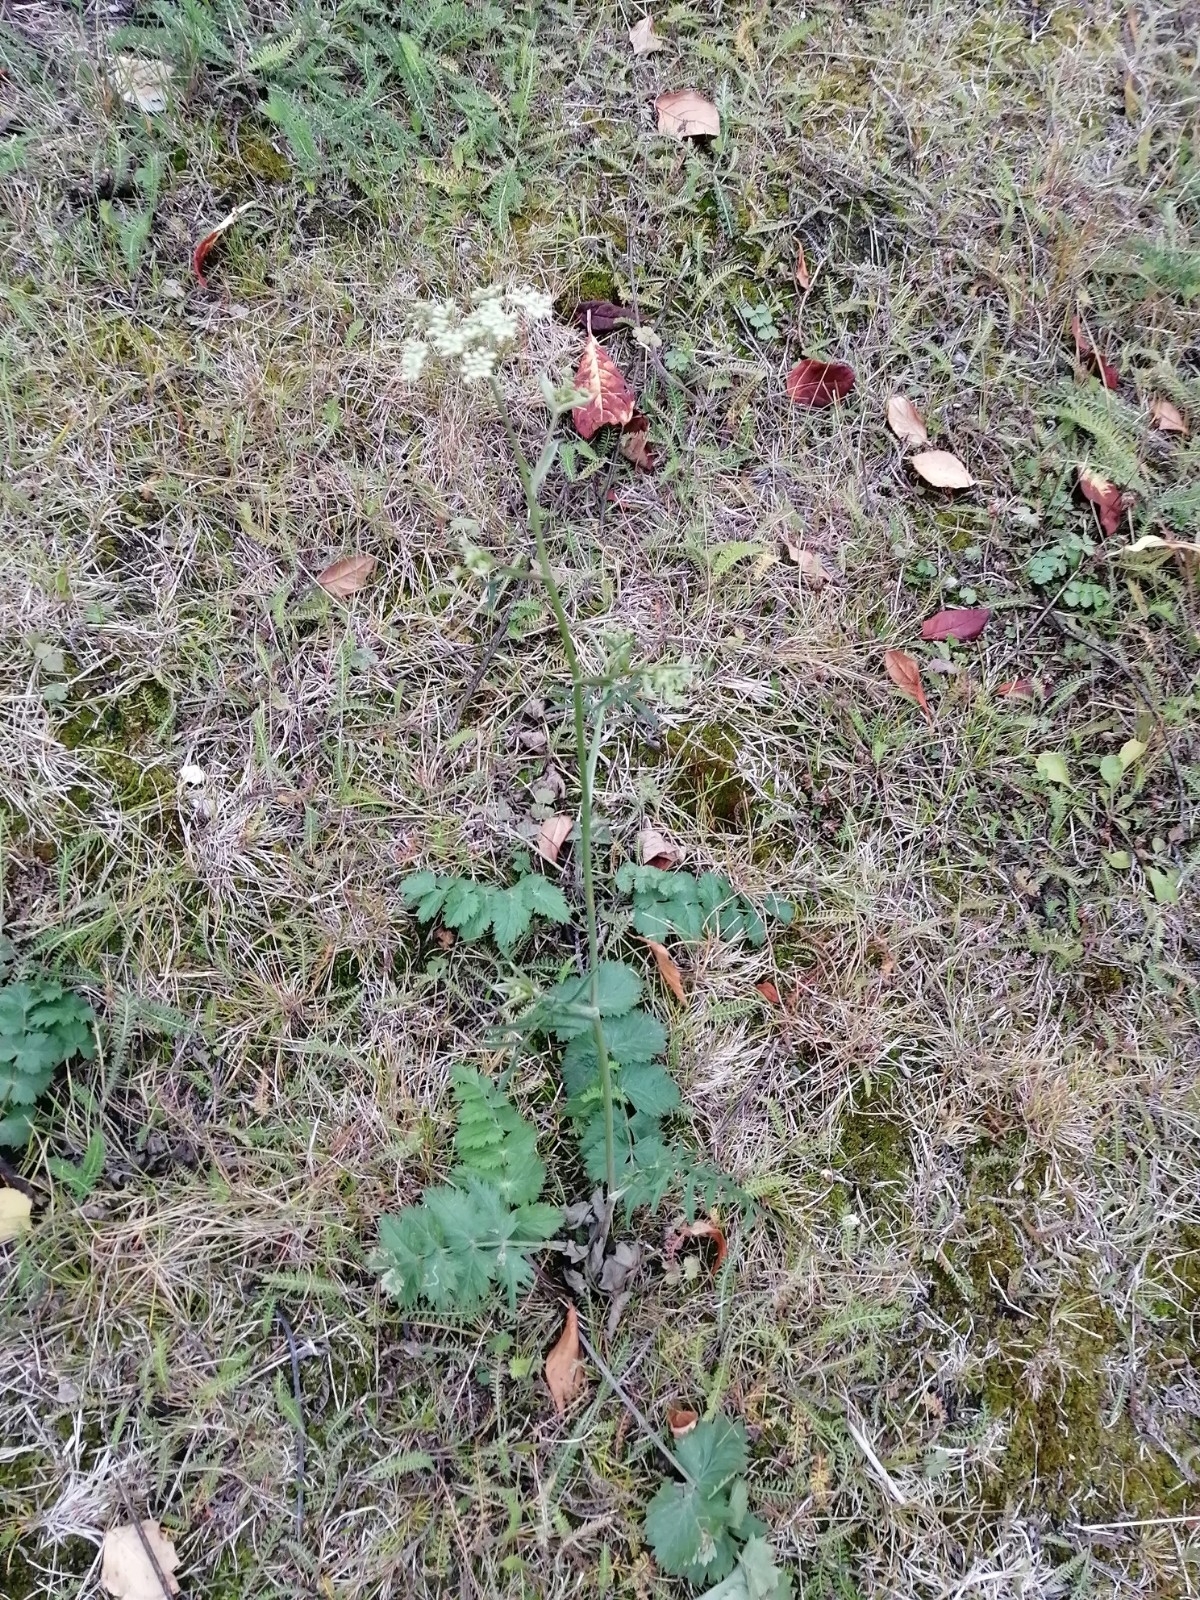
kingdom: Plantae
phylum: Tracheophyta
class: Magnoliopsida
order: Apiales
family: Apiaceae
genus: Pimpinella
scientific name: Pimpinella saxifraga
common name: Burnet-saxifrage
